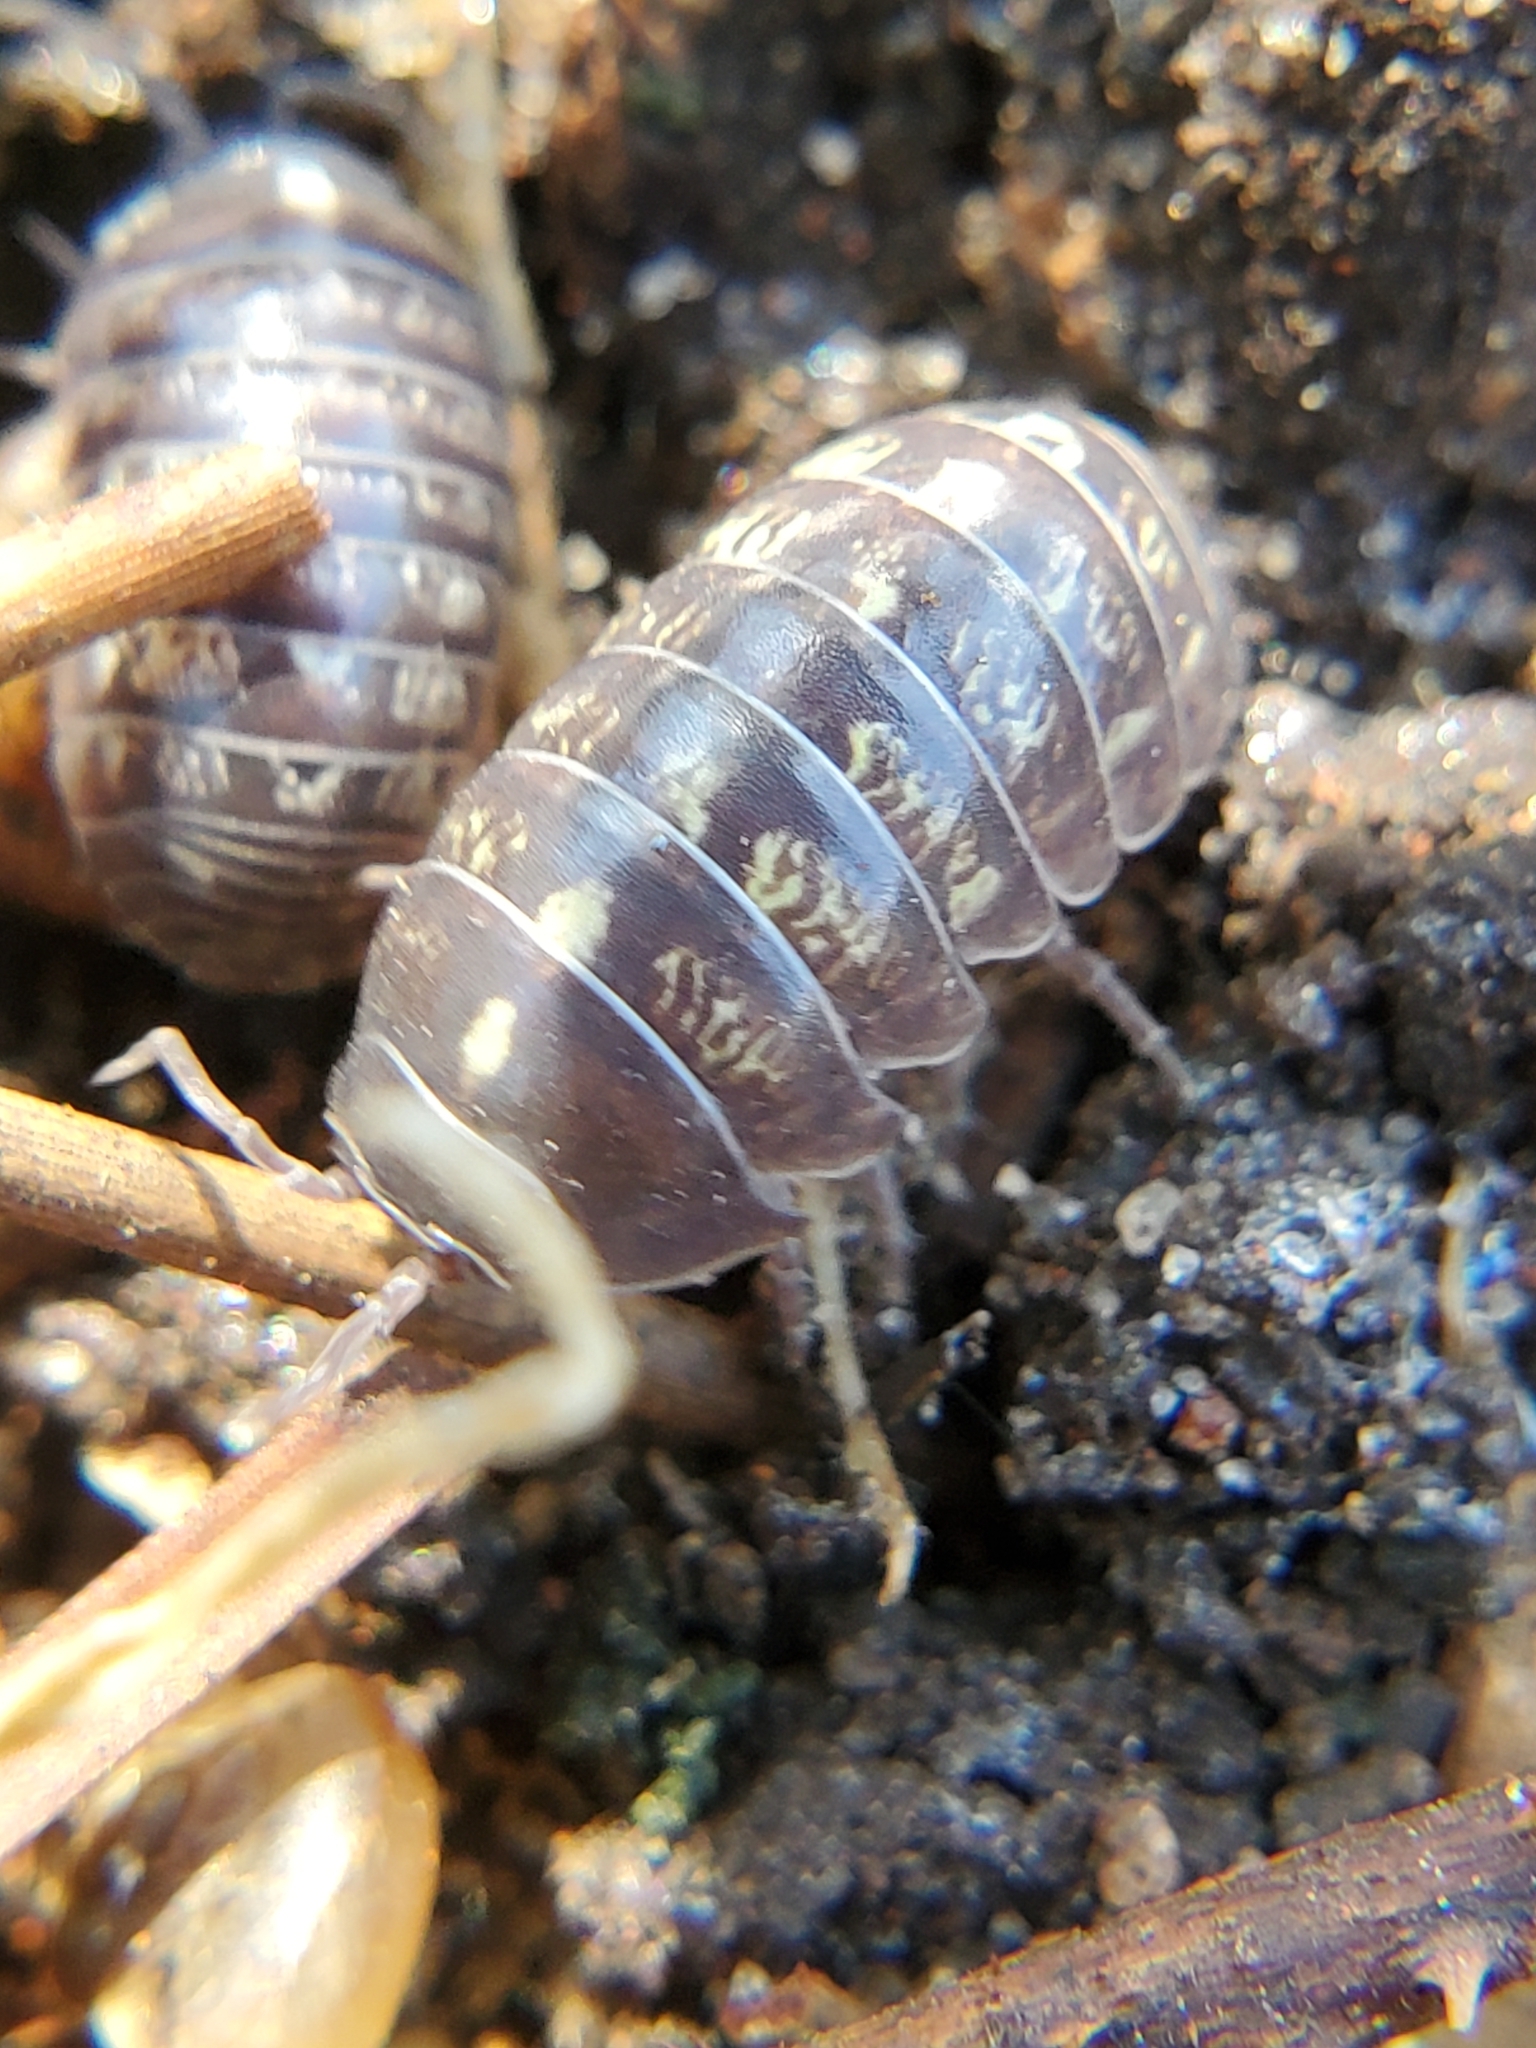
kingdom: Animalia
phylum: Arthropoda
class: Malacostraca
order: Isopoda
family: Armadillidiidae
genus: Armadillidium
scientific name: Armadillidium vulgare
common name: Common pill woodlouse
